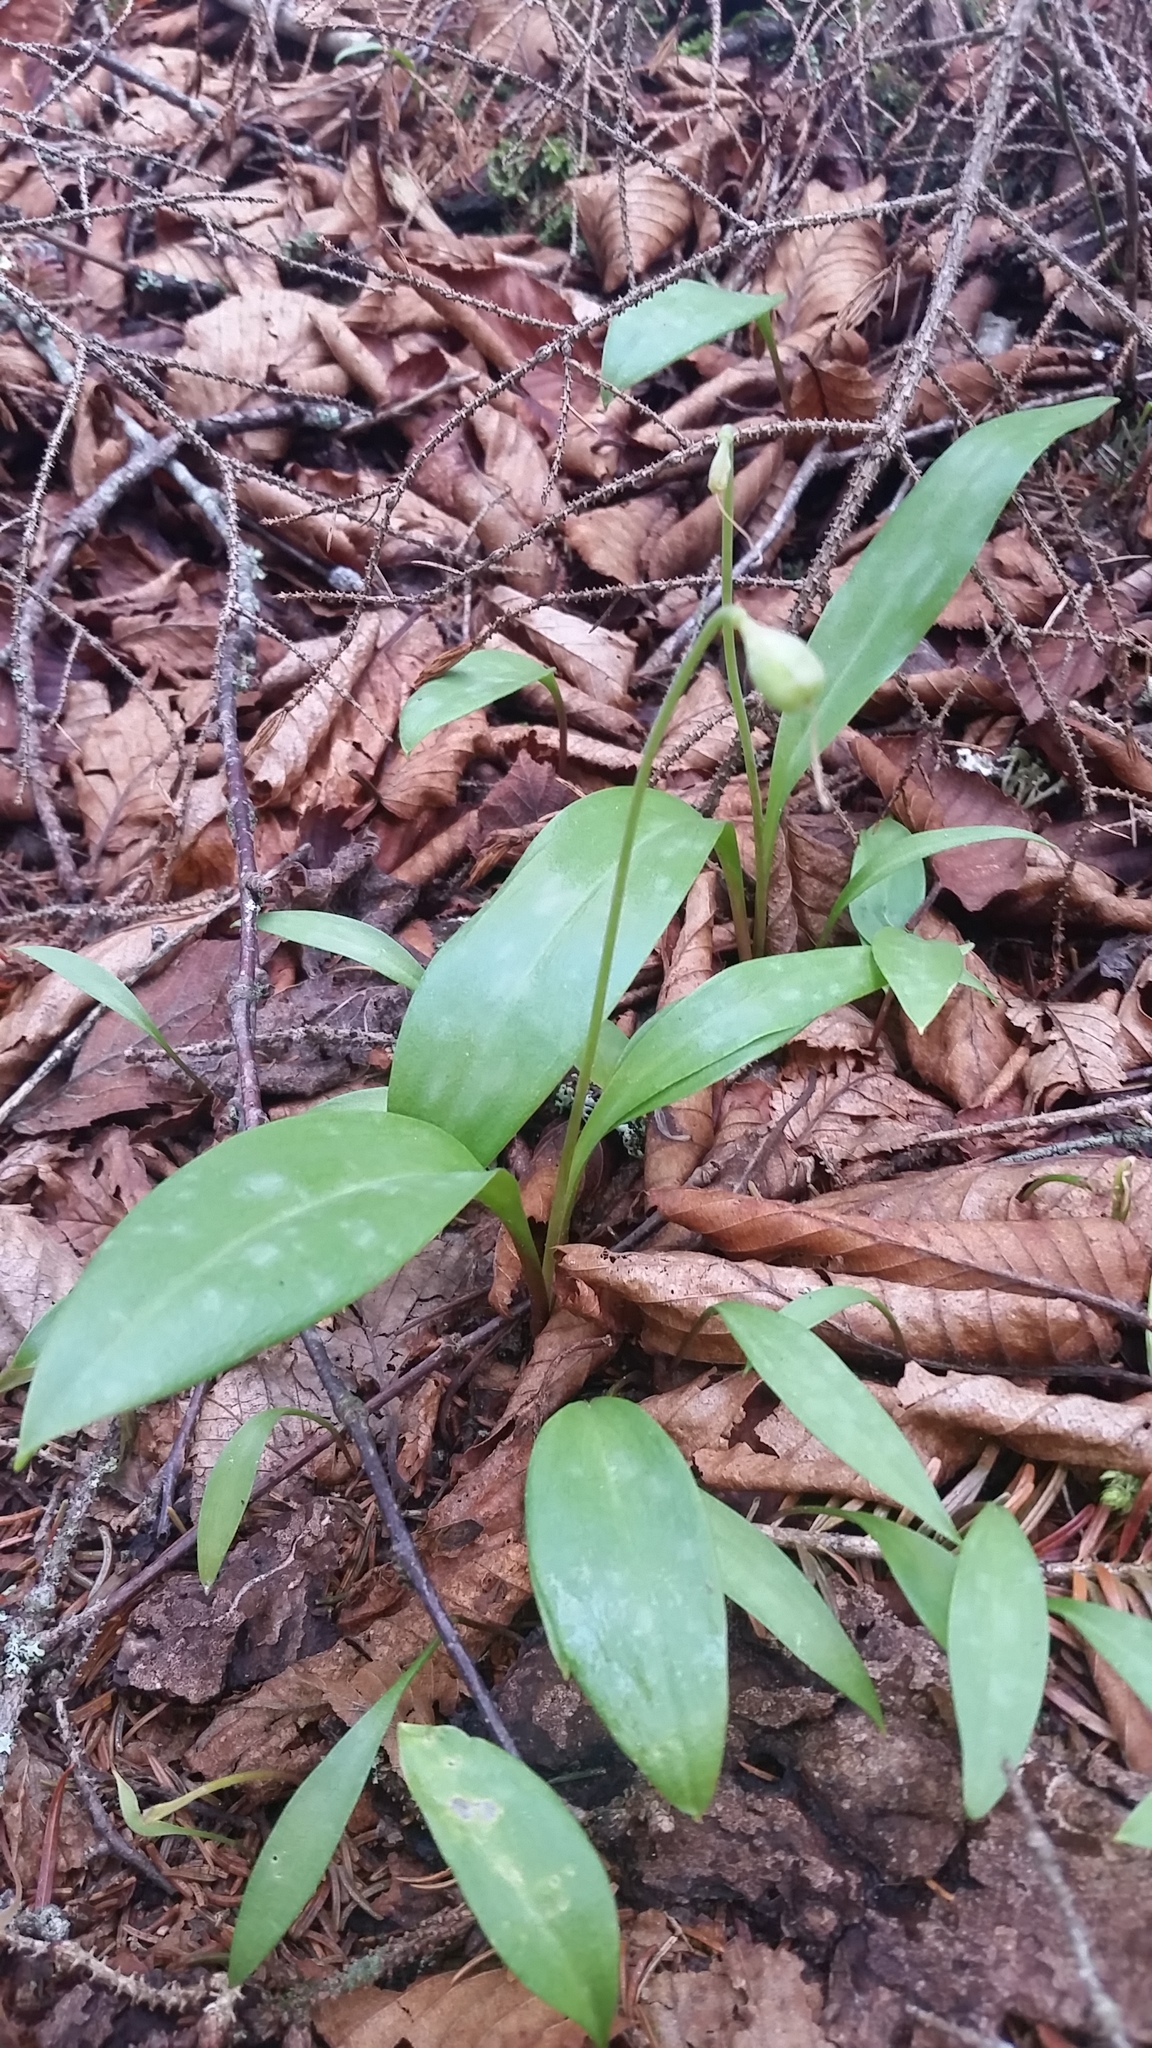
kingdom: Plantae
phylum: Tracheophyta
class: Liliopsida
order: Liliales
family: Liliaceae
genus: Erythronium
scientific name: Erythronium umbilicatum
